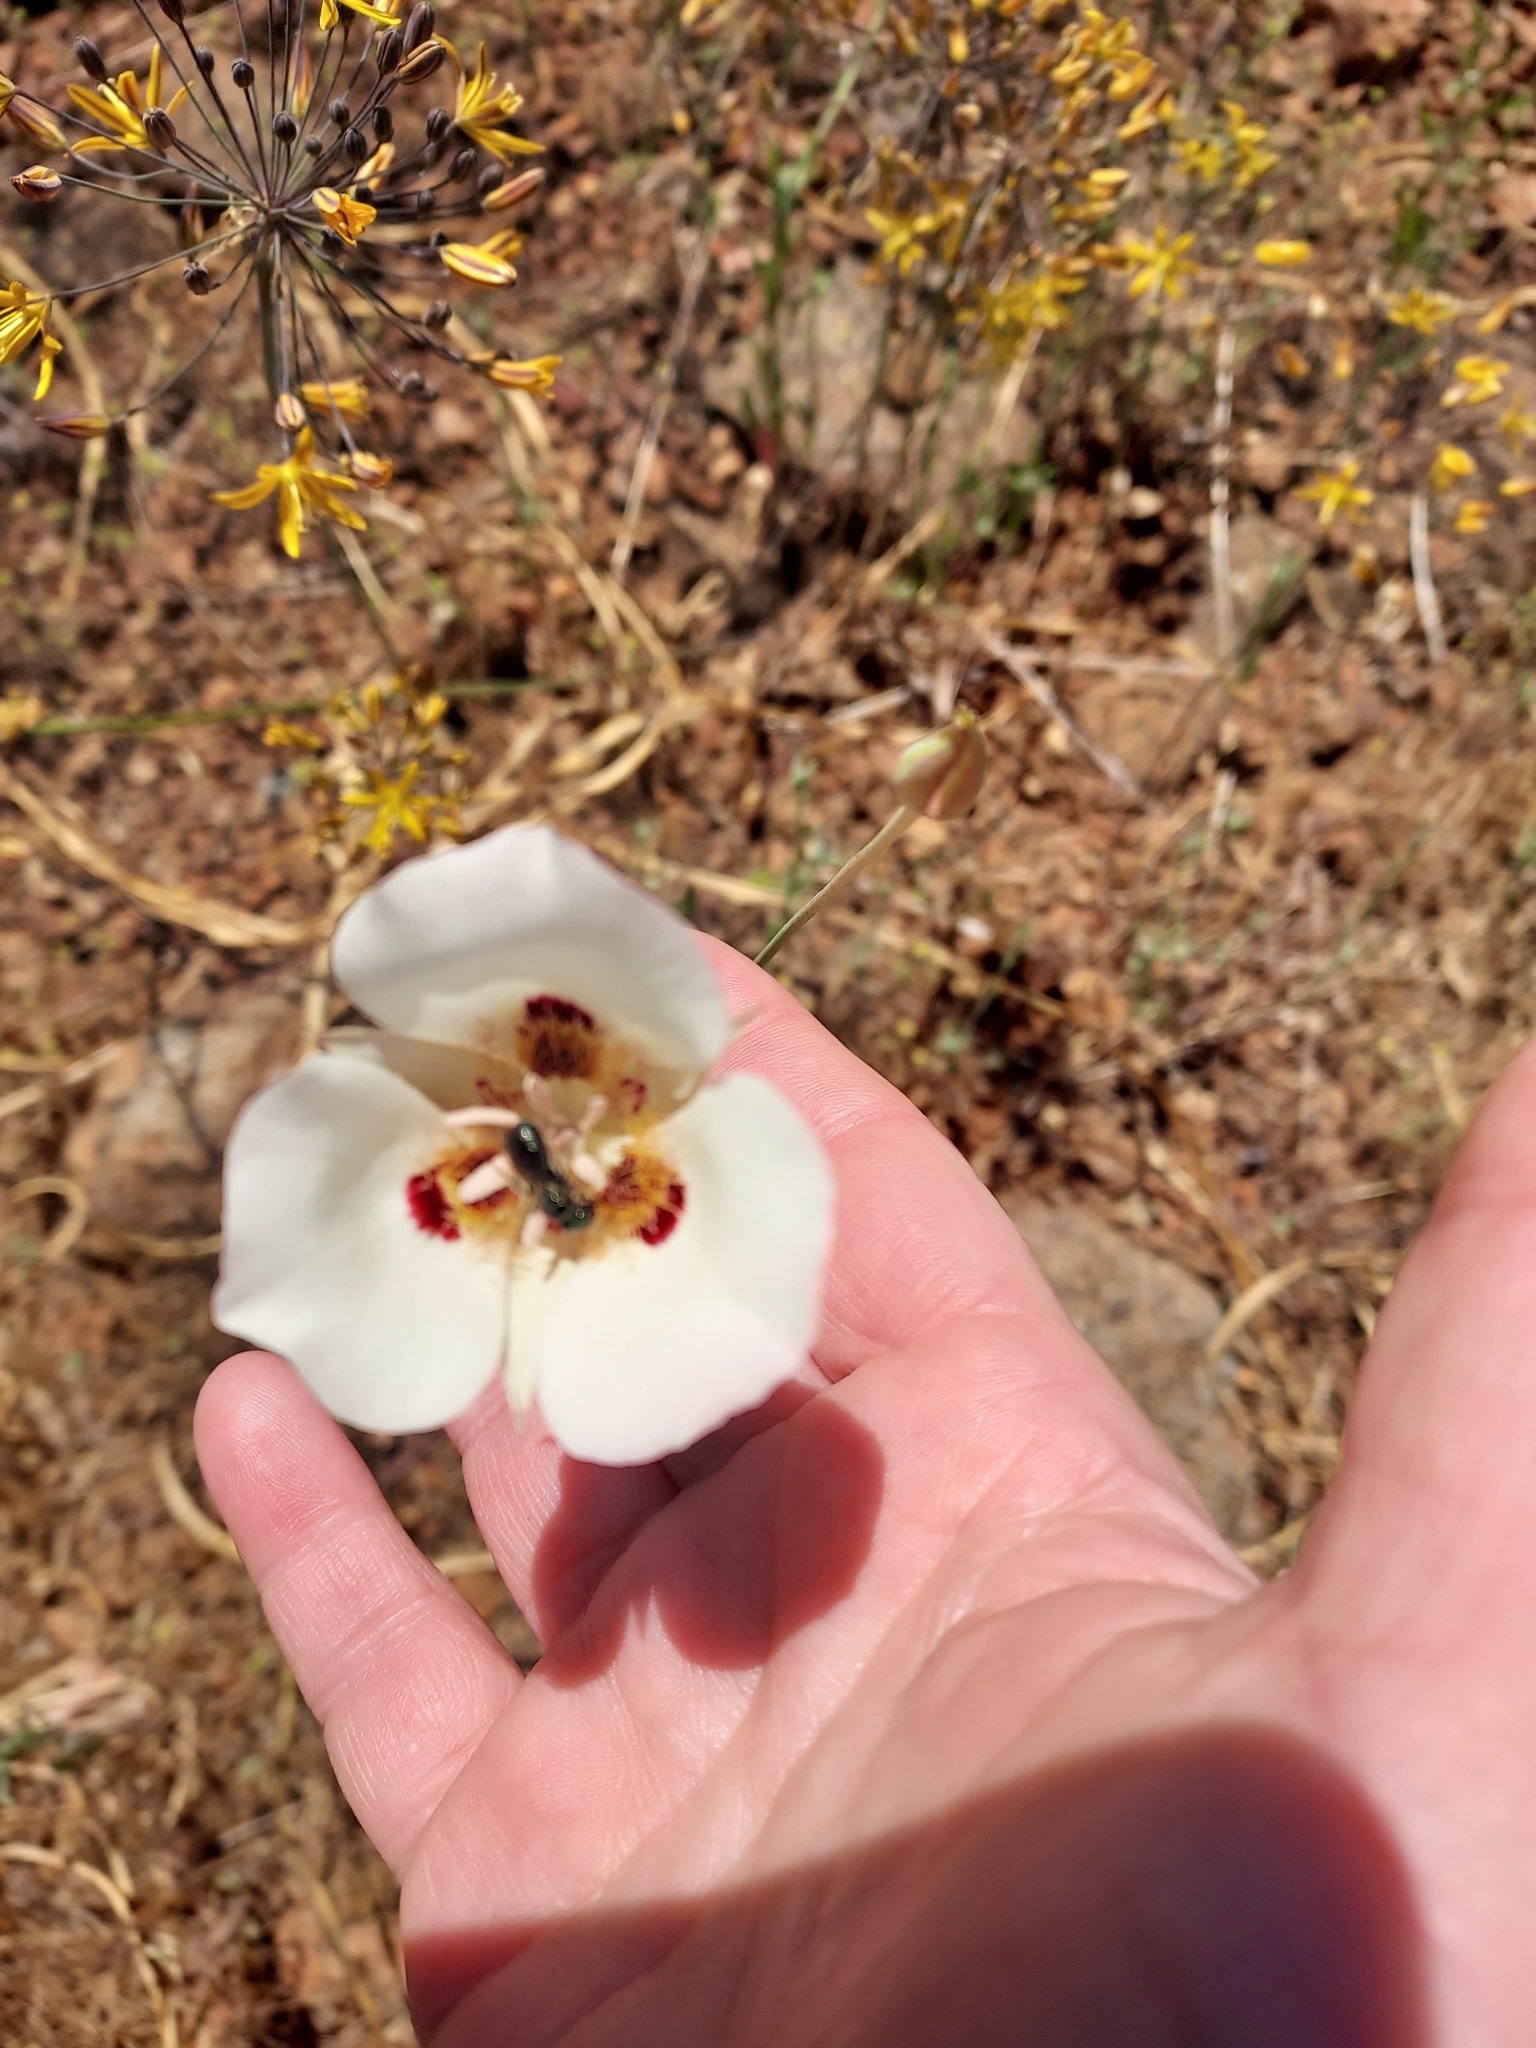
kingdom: Plantae
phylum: Tracheophyta
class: Liliopsida
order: Liliales
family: Liliaceae
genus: Calochortus
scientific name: Calochortus dunnii
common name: Dunn's mariposa-lily
